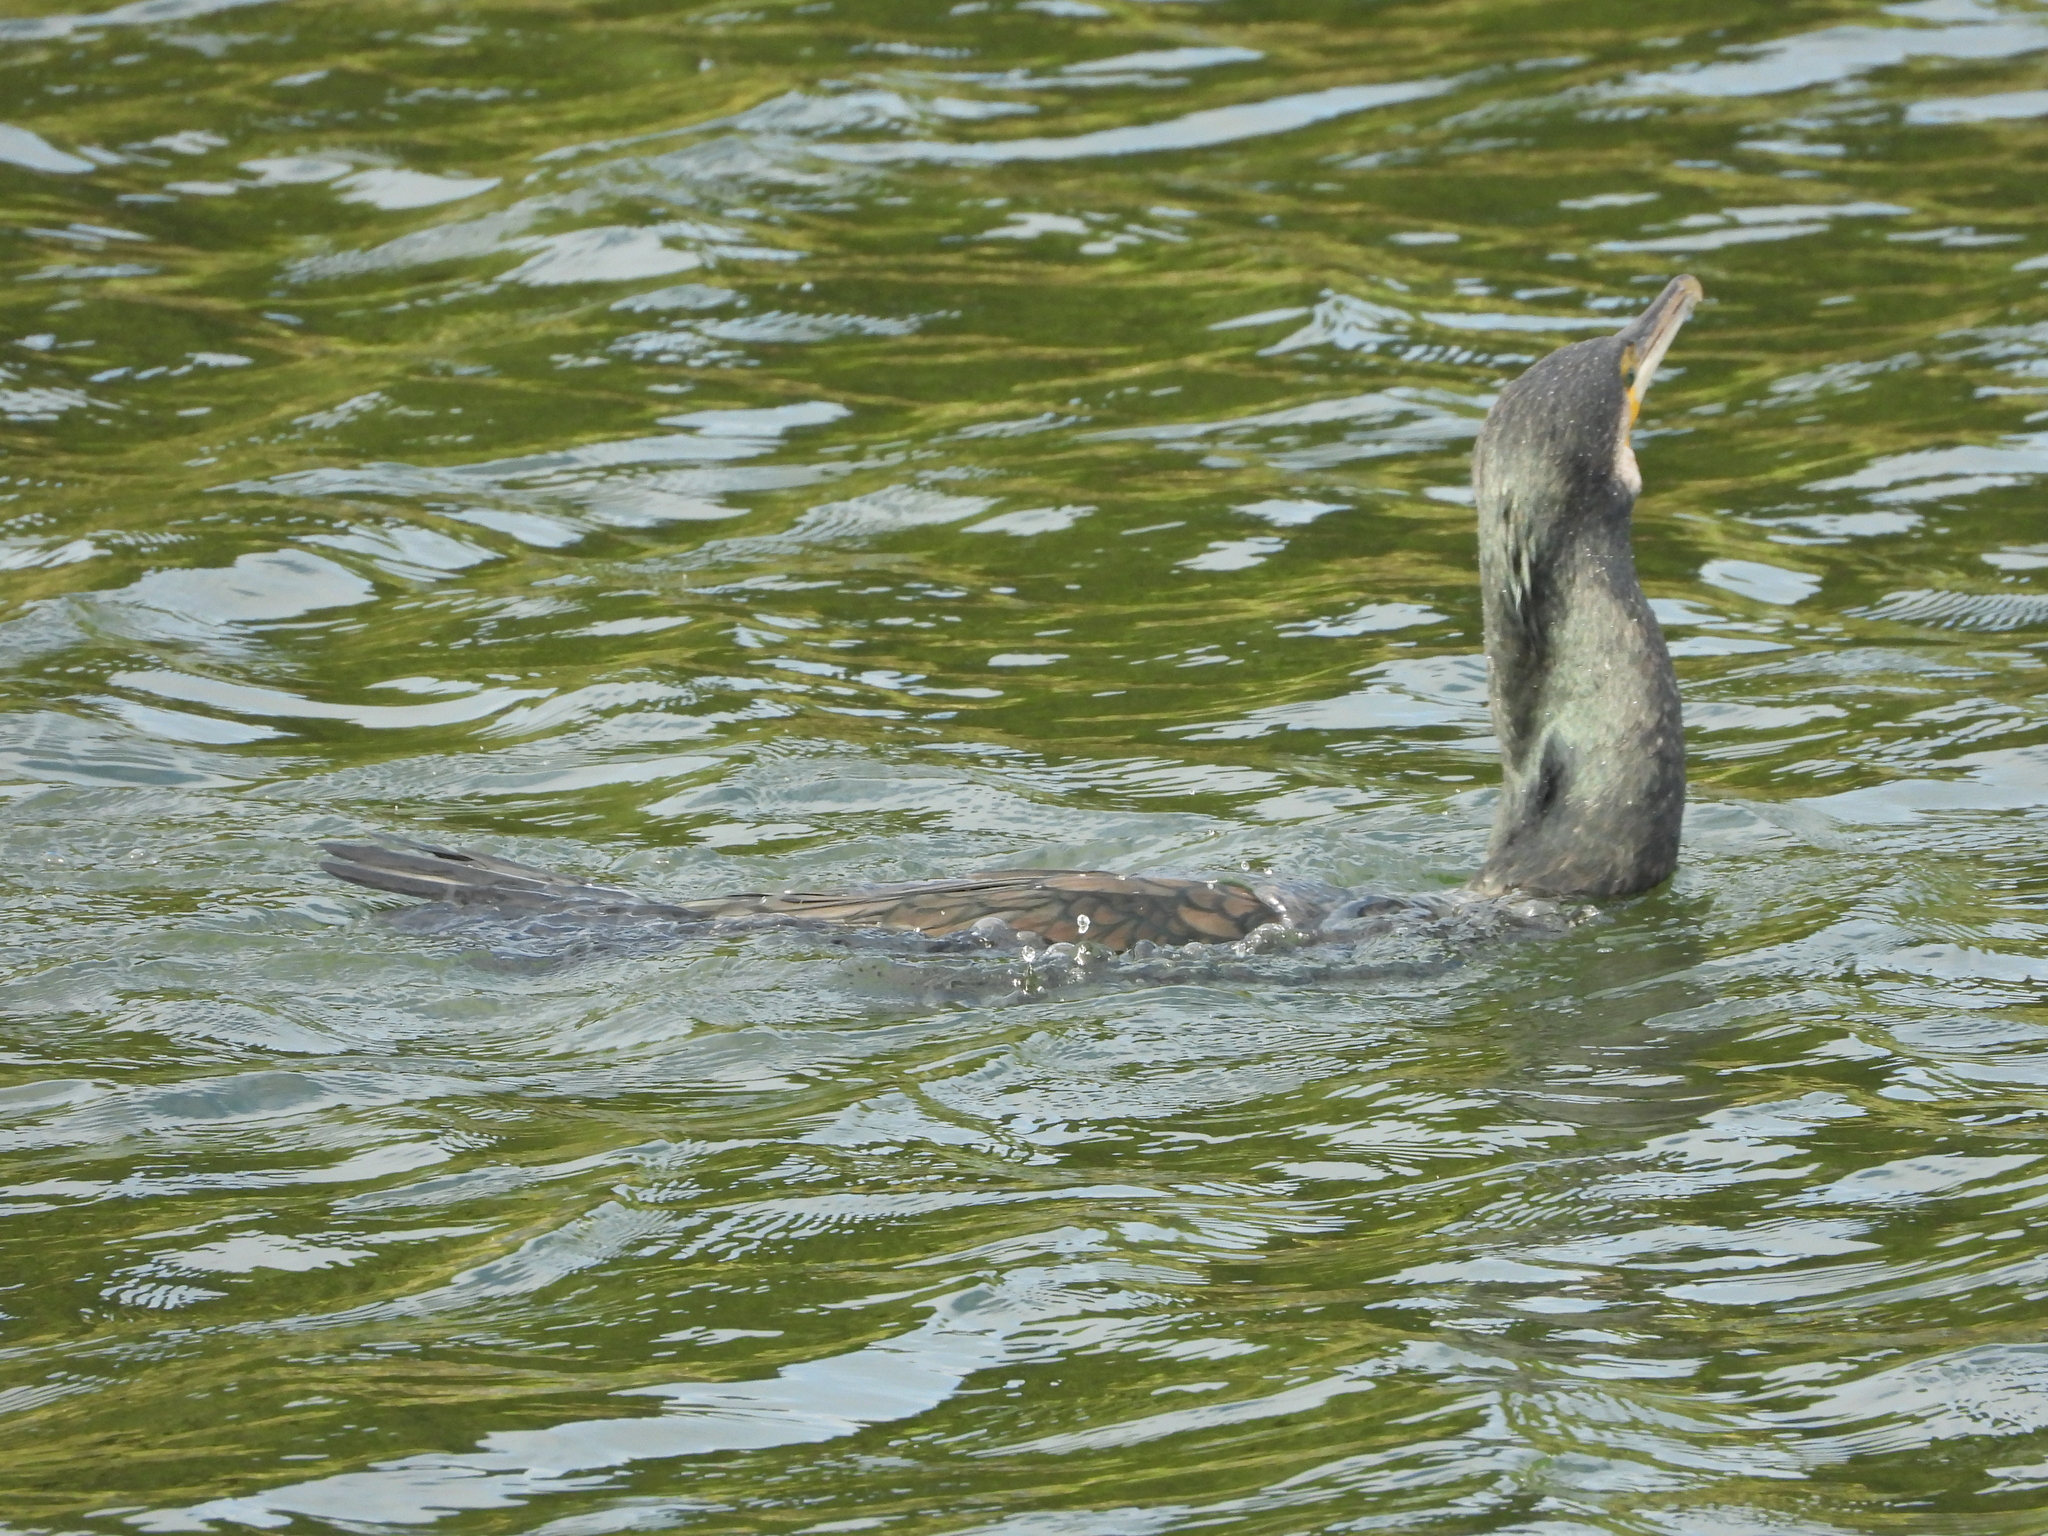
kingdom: Animalia
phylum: Chordata
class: Aves
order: Suliformes
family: Phalacrocoracidae
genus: Phalacrocorax
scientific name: Phalacrocorax carbo
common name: Great cormorant
